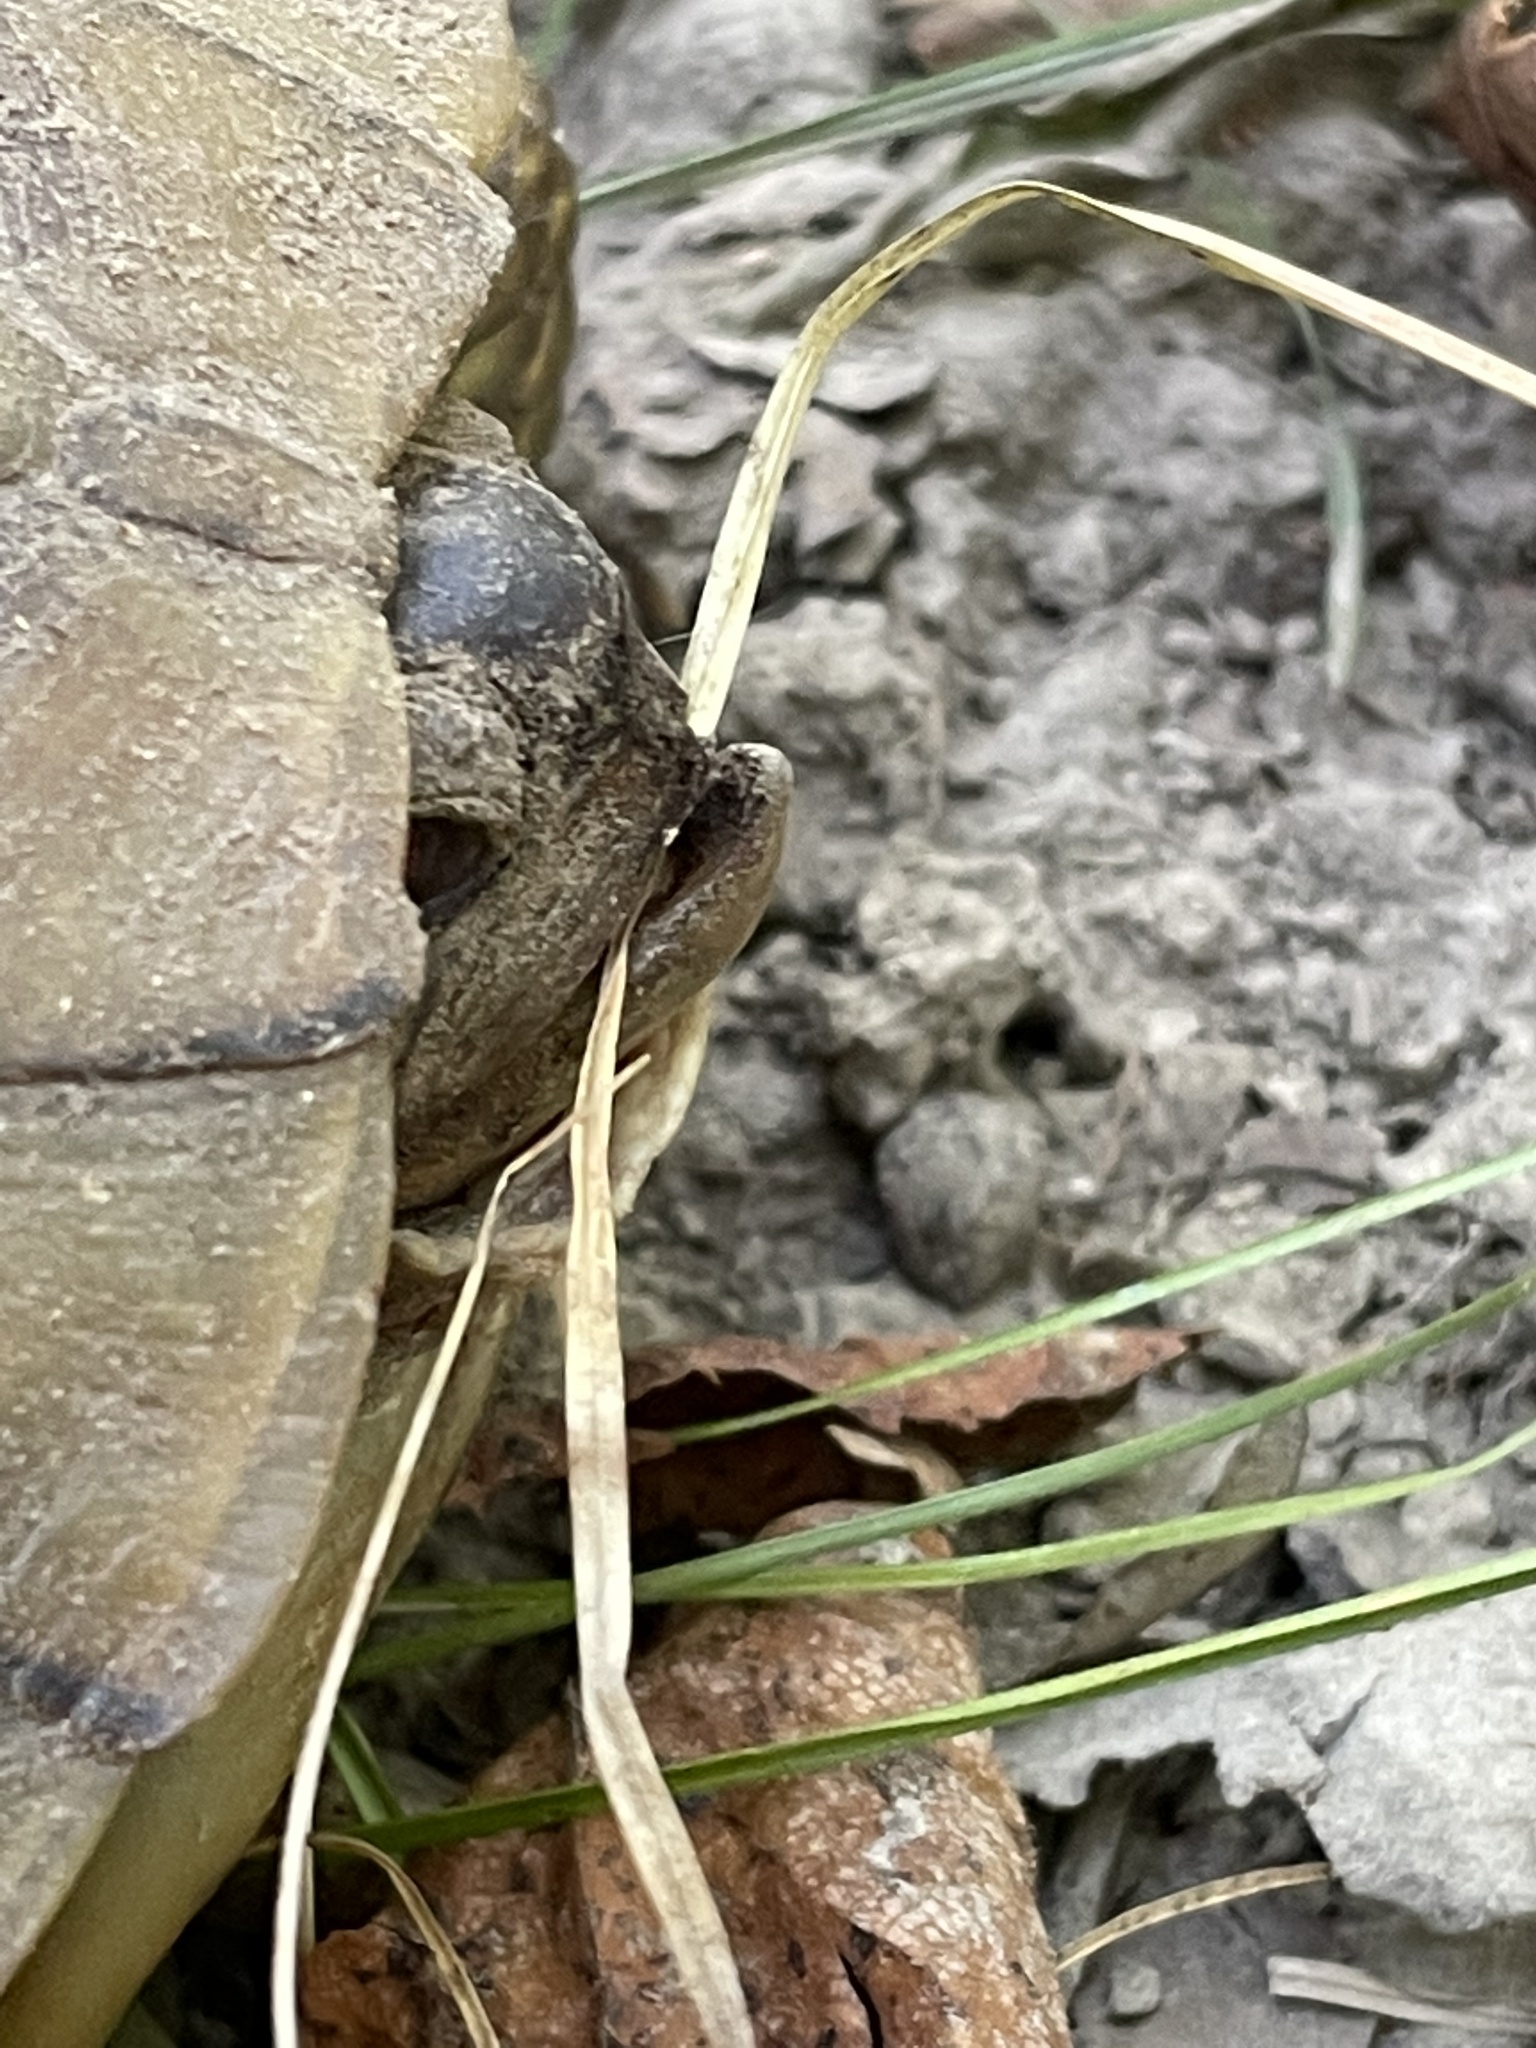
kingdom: Animalia
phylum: Chordata
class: Testudines
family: Emydidae
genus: Terrapene
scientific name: Terrapene carolina
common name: Common box turtle
